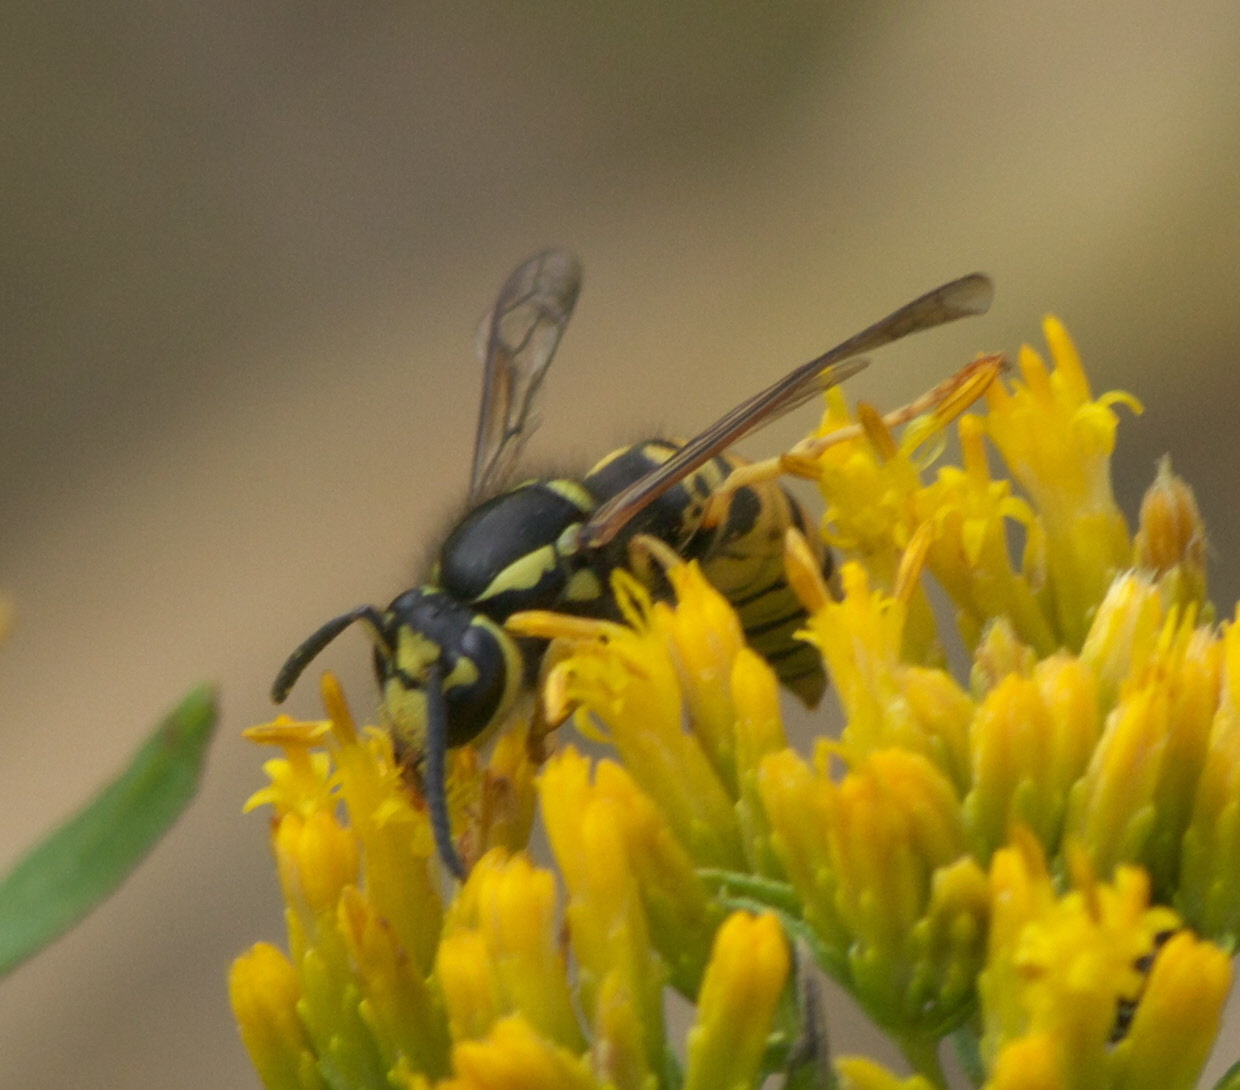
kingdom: Animalia
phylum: Arthropoda
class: Insecta
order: Hymenoptera
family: Vespidae
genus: Vespula
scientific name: Vespula atropilosa
